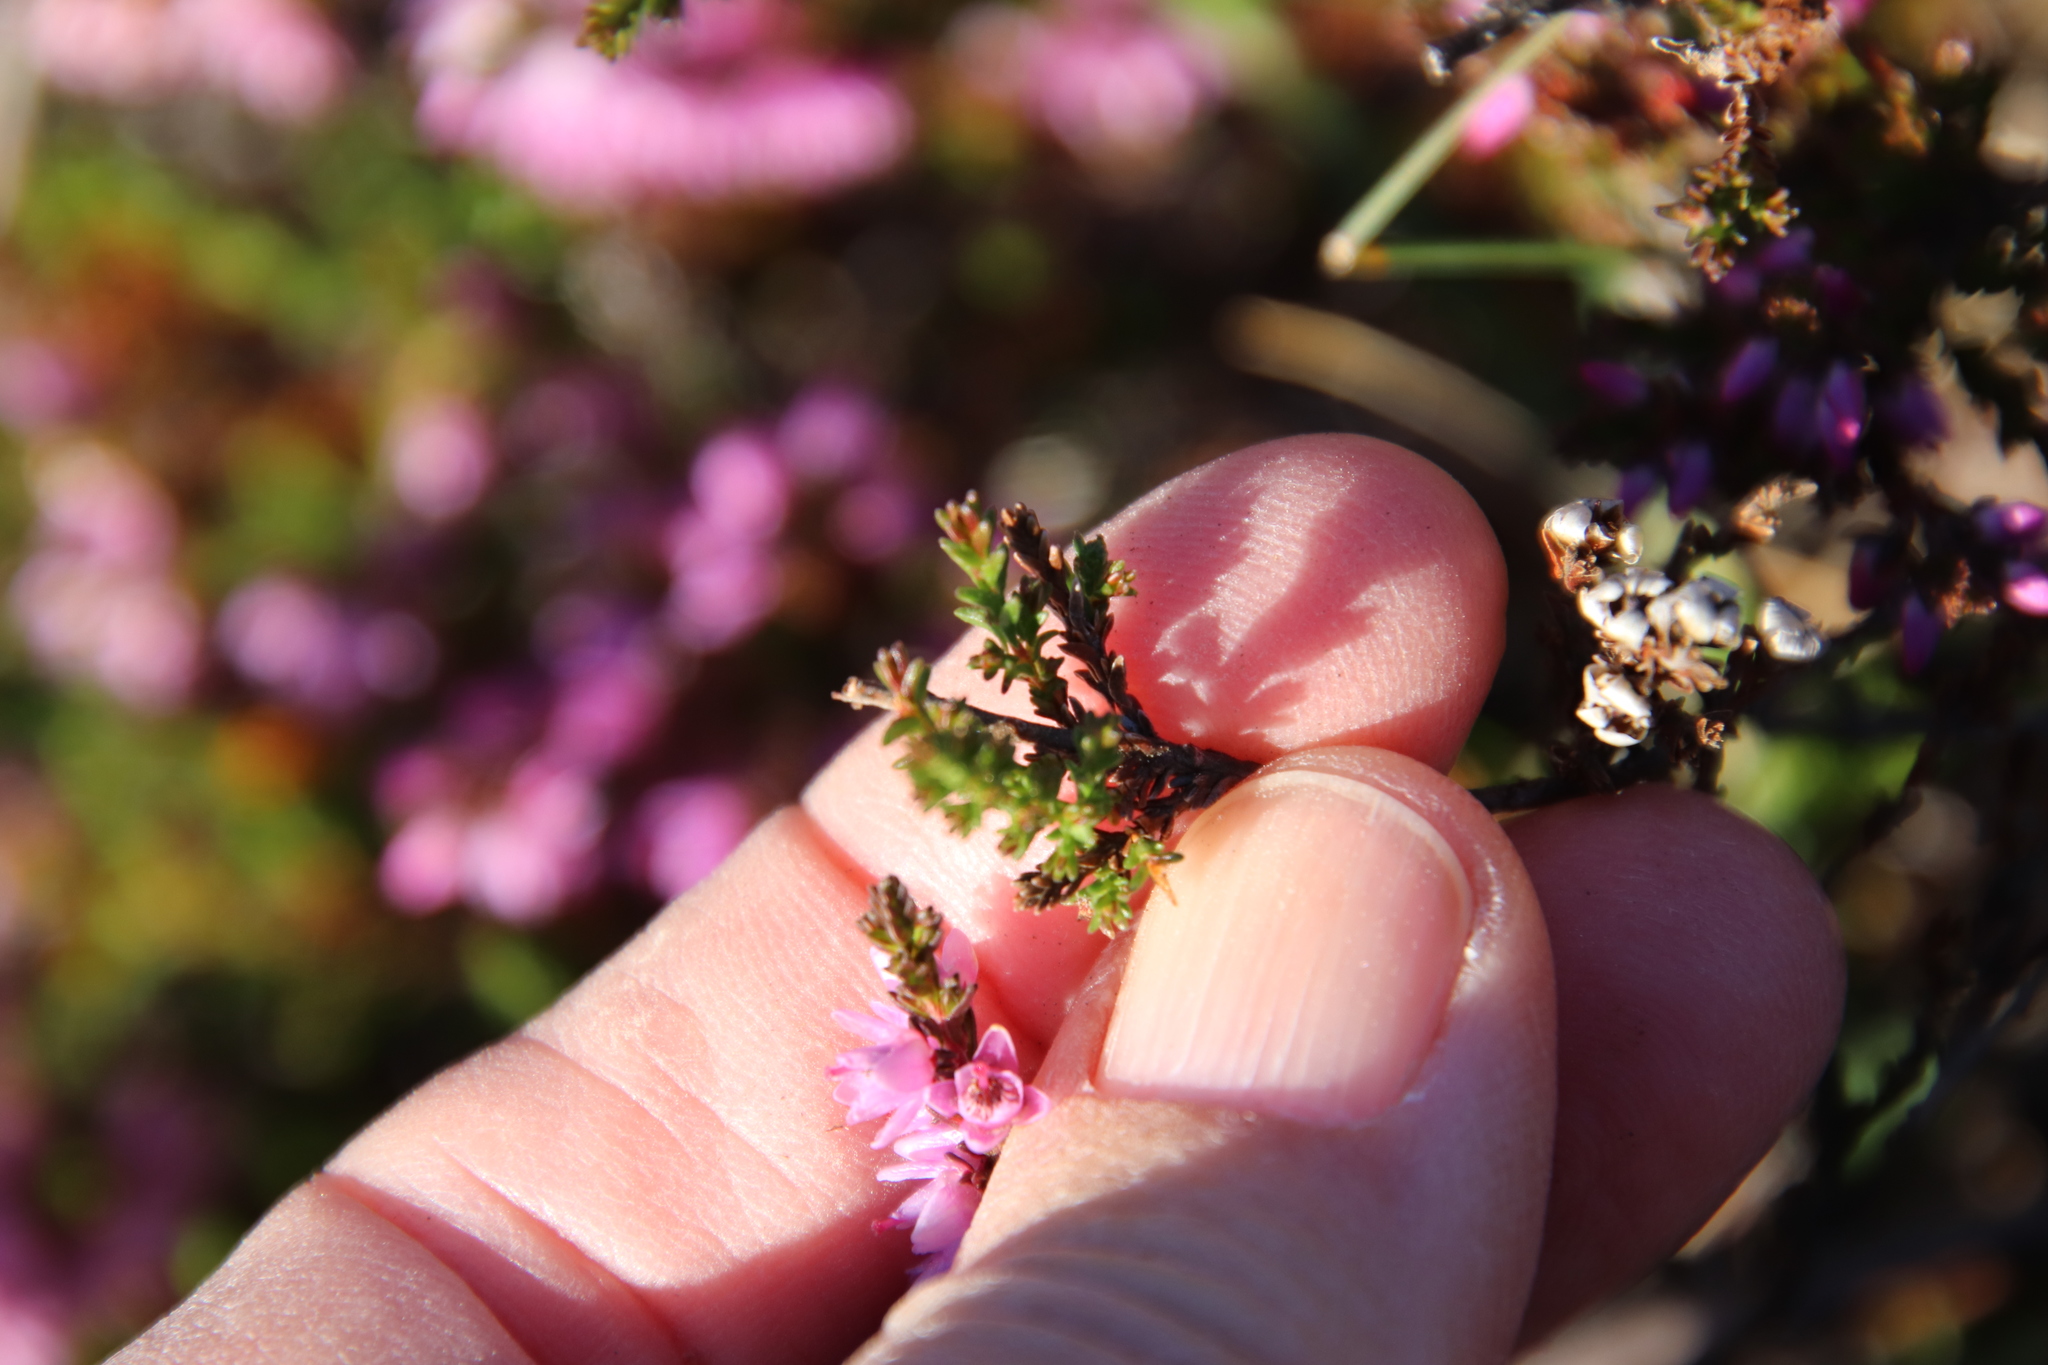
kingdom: Plantae
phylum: Tracheophyta
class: Magnoliopsida
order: Ericales
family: Ericaceae
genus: Calluna
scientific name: Calluna vulgaris
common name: Heather
